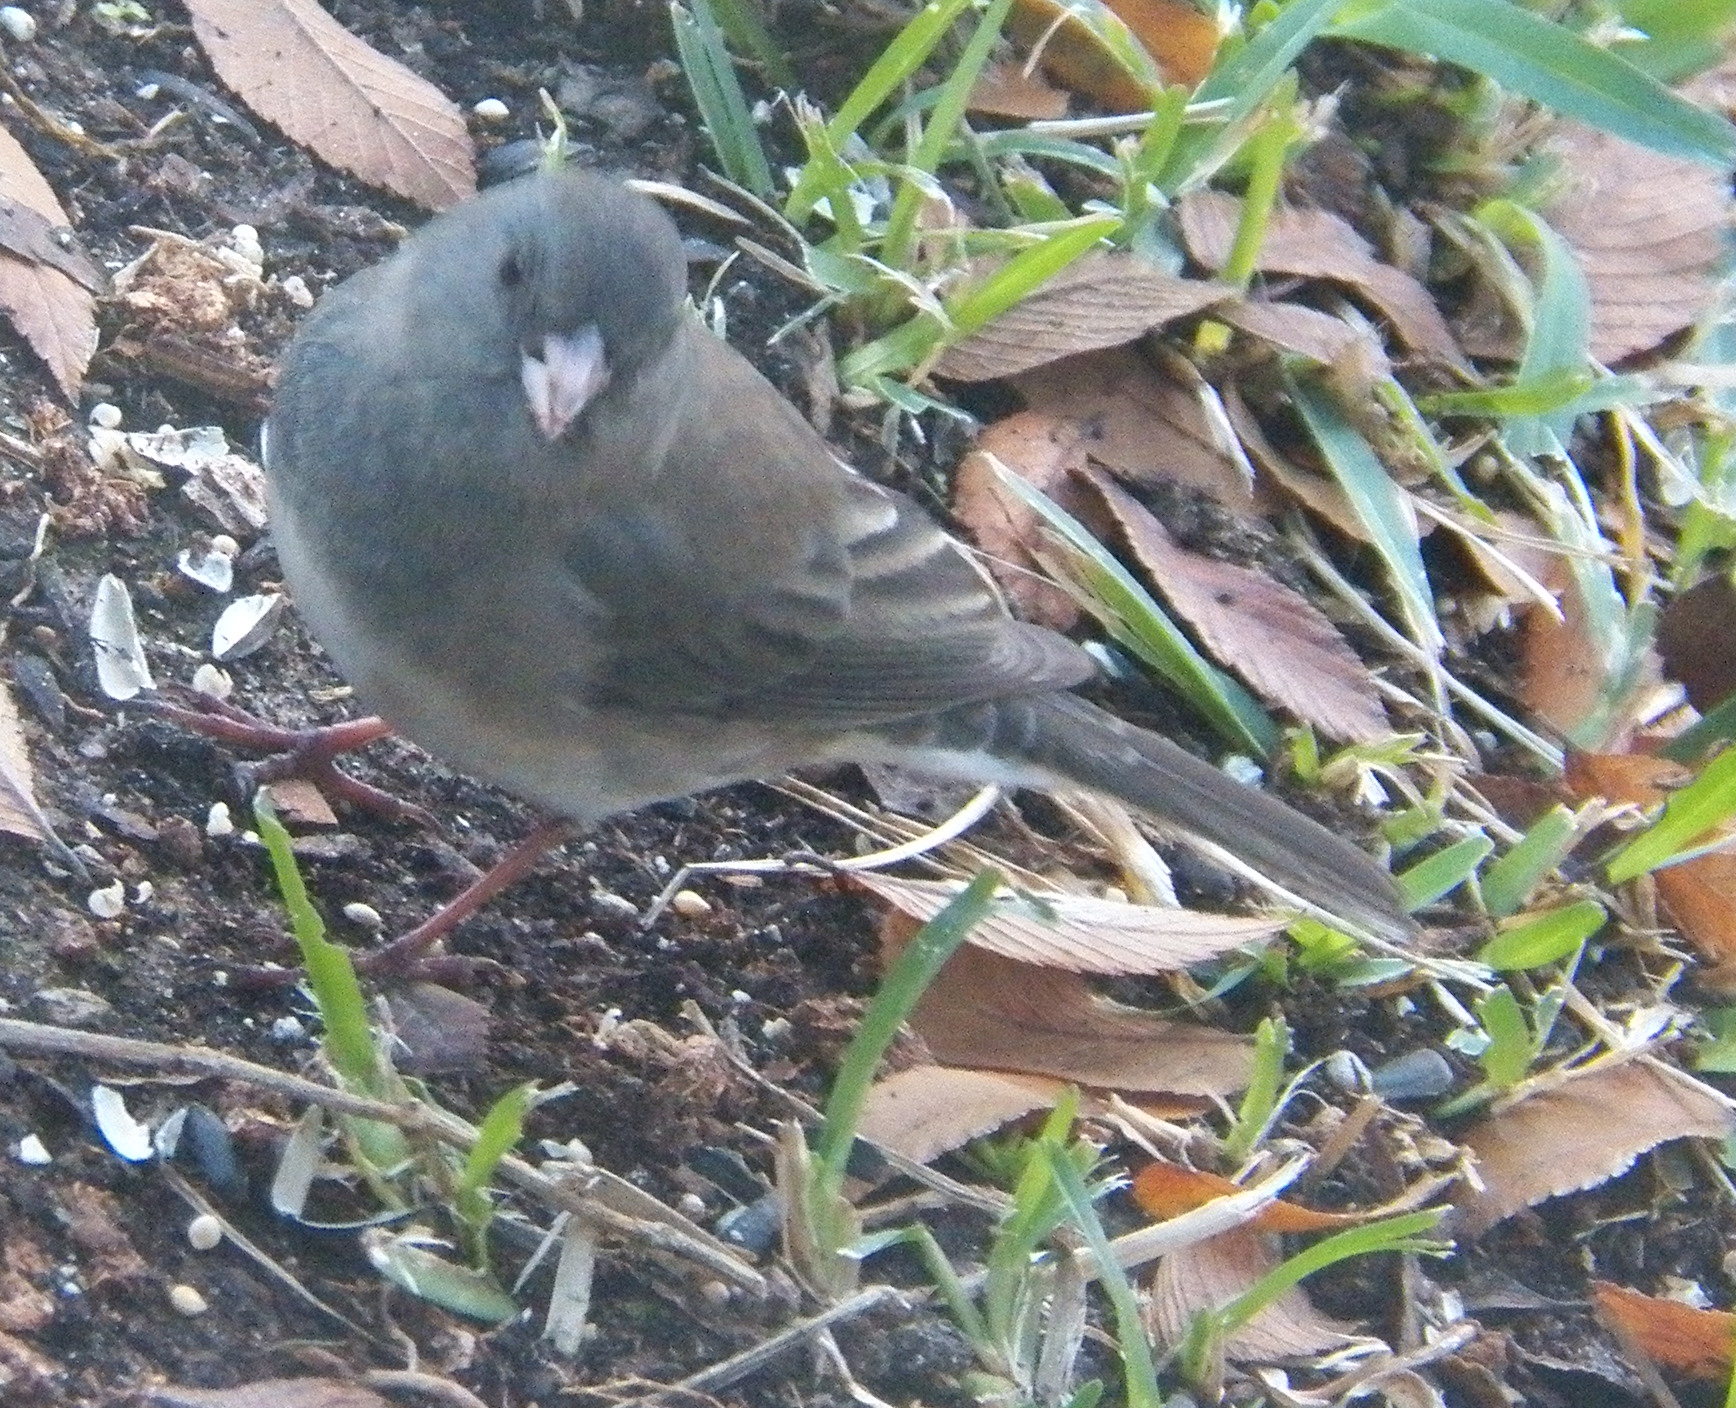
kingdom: Animalia
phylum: Chordata
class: Aves
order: Passeriformes
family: Passerellidae
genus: Junco
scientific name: Junco hyemalis
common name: Dark-eyed junco
